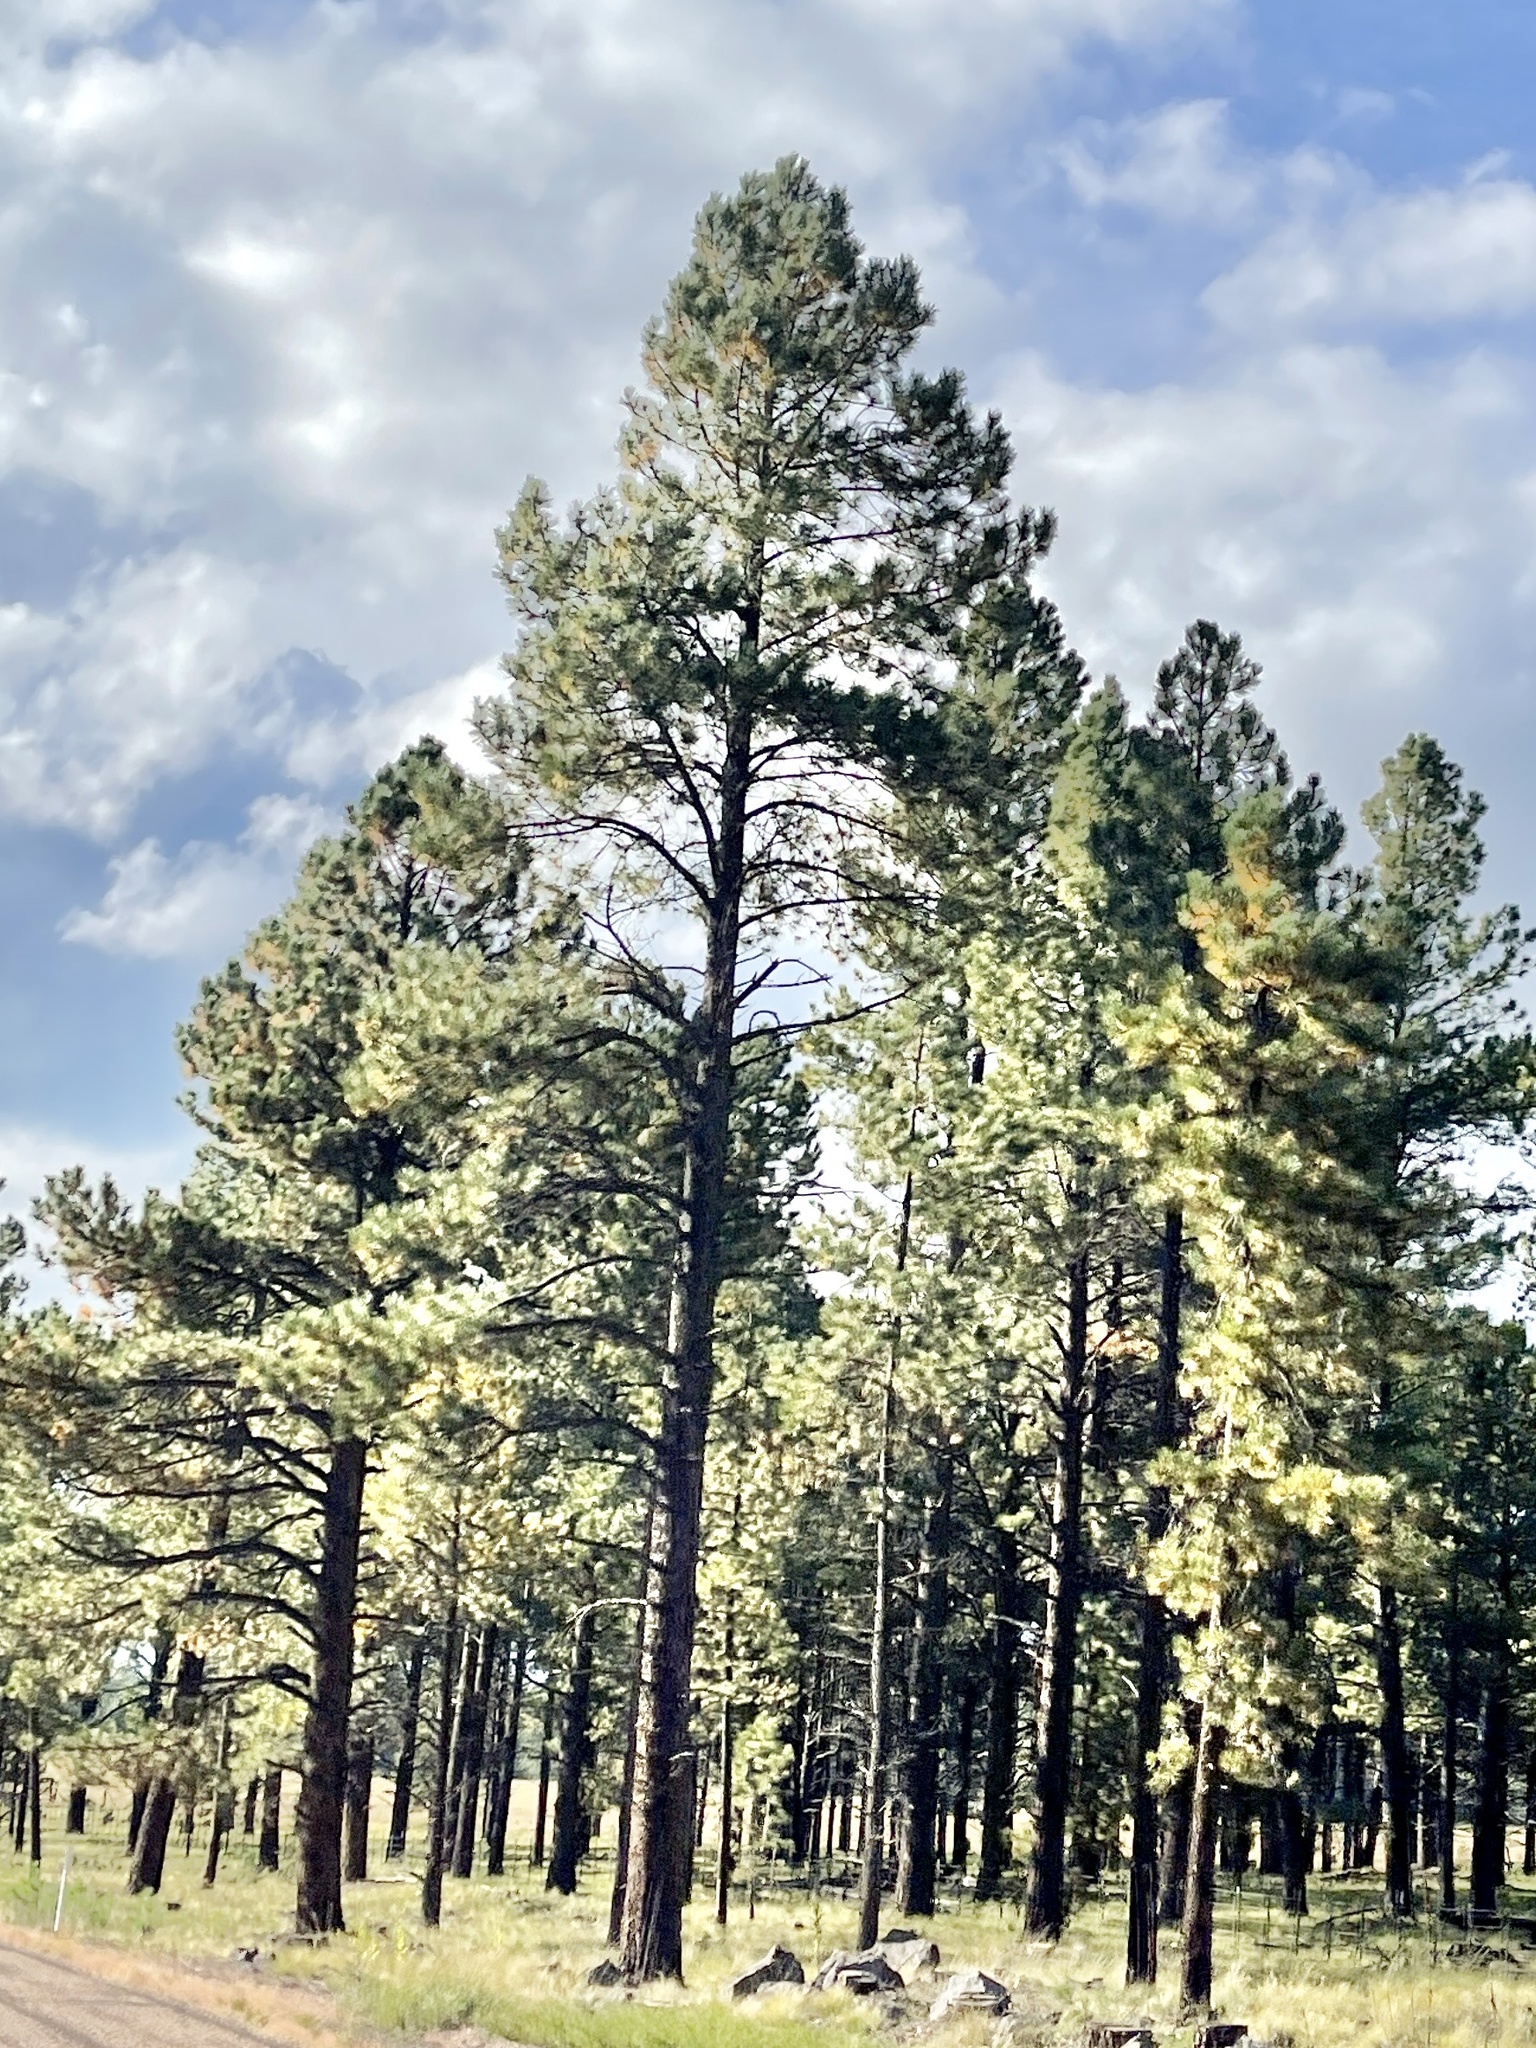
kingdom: Plantae
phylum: Tracheophyta
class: Pinopsida
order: Pinales
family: Pinaceae
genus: Pinus
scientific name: Pinus ponderosa
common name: Western yellow-pine
